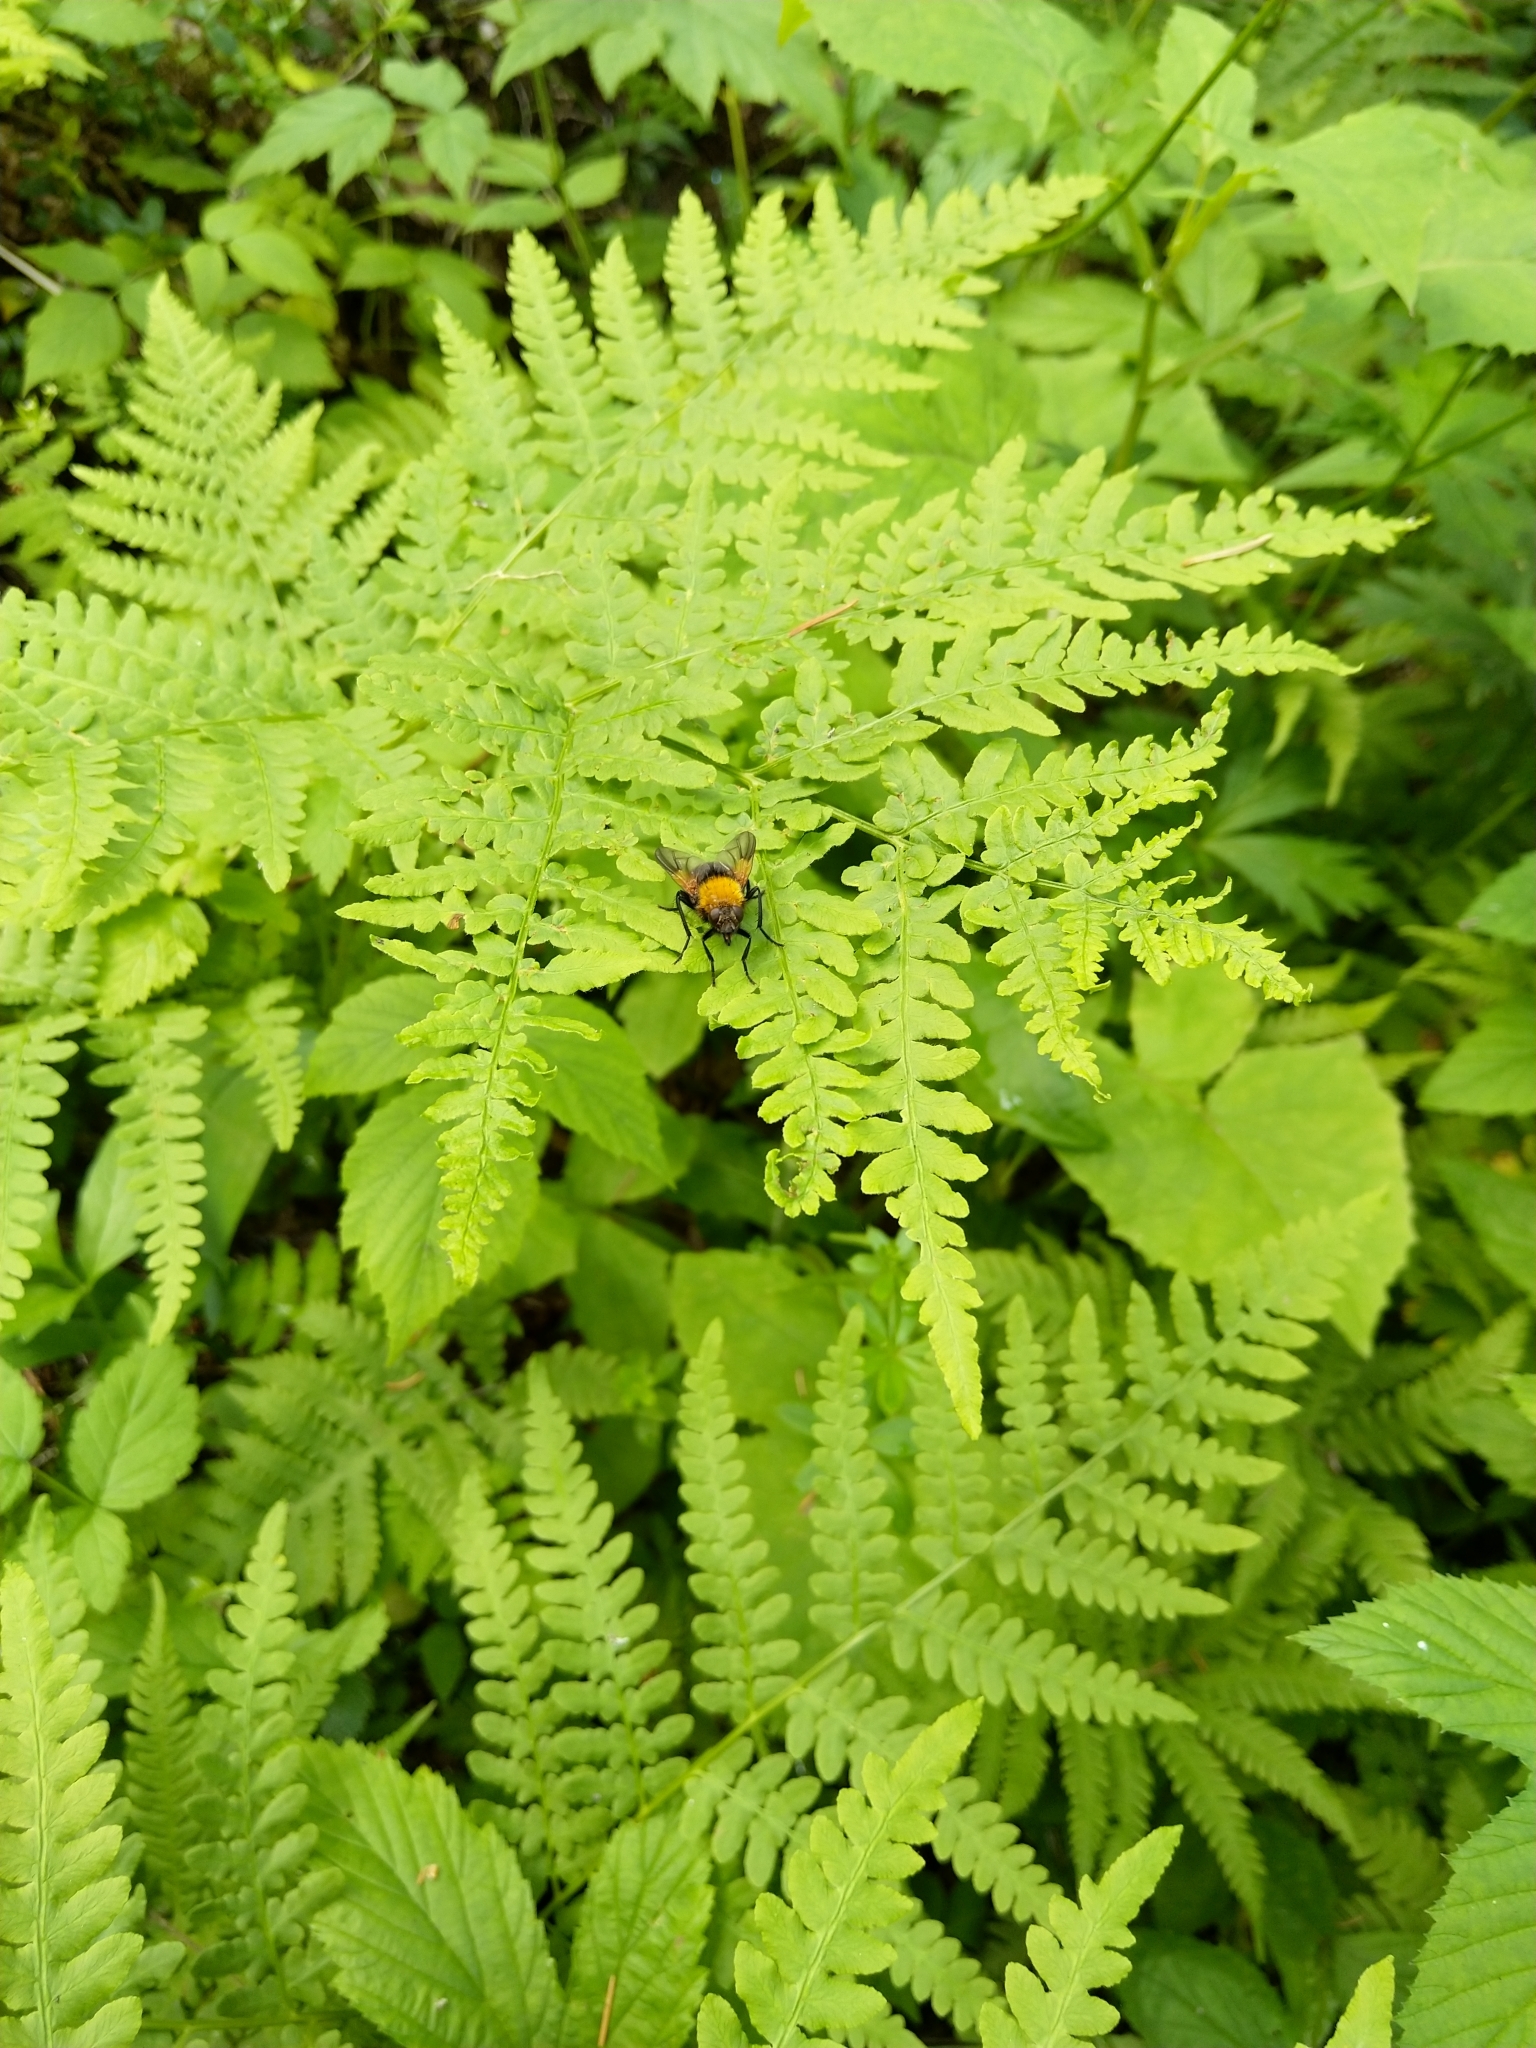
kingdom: Animalia
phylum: Arthropoda
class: Insecta
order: Diptera
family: Muscidae
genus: Mesembrina
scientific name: Mesembrina mystacea
